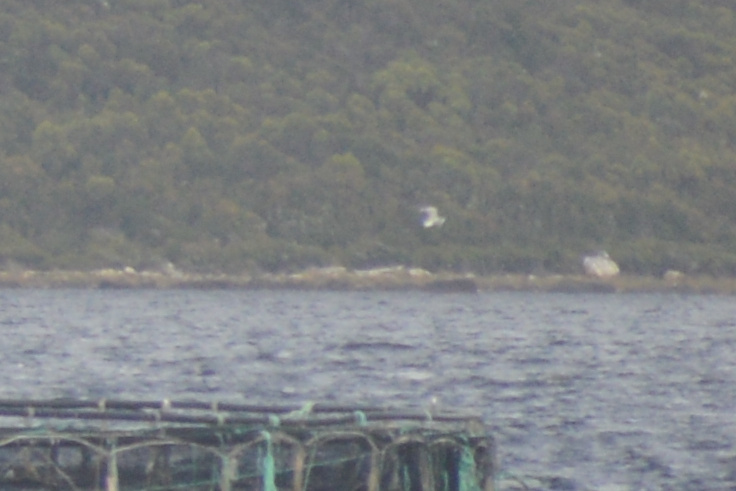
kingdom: Animalia
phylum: Chordata
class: Aves
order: Charadriiformes
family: Laridae
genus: Chroicocephalus
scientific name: Chroicocephalus novaehollandiae
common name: Silver gull
